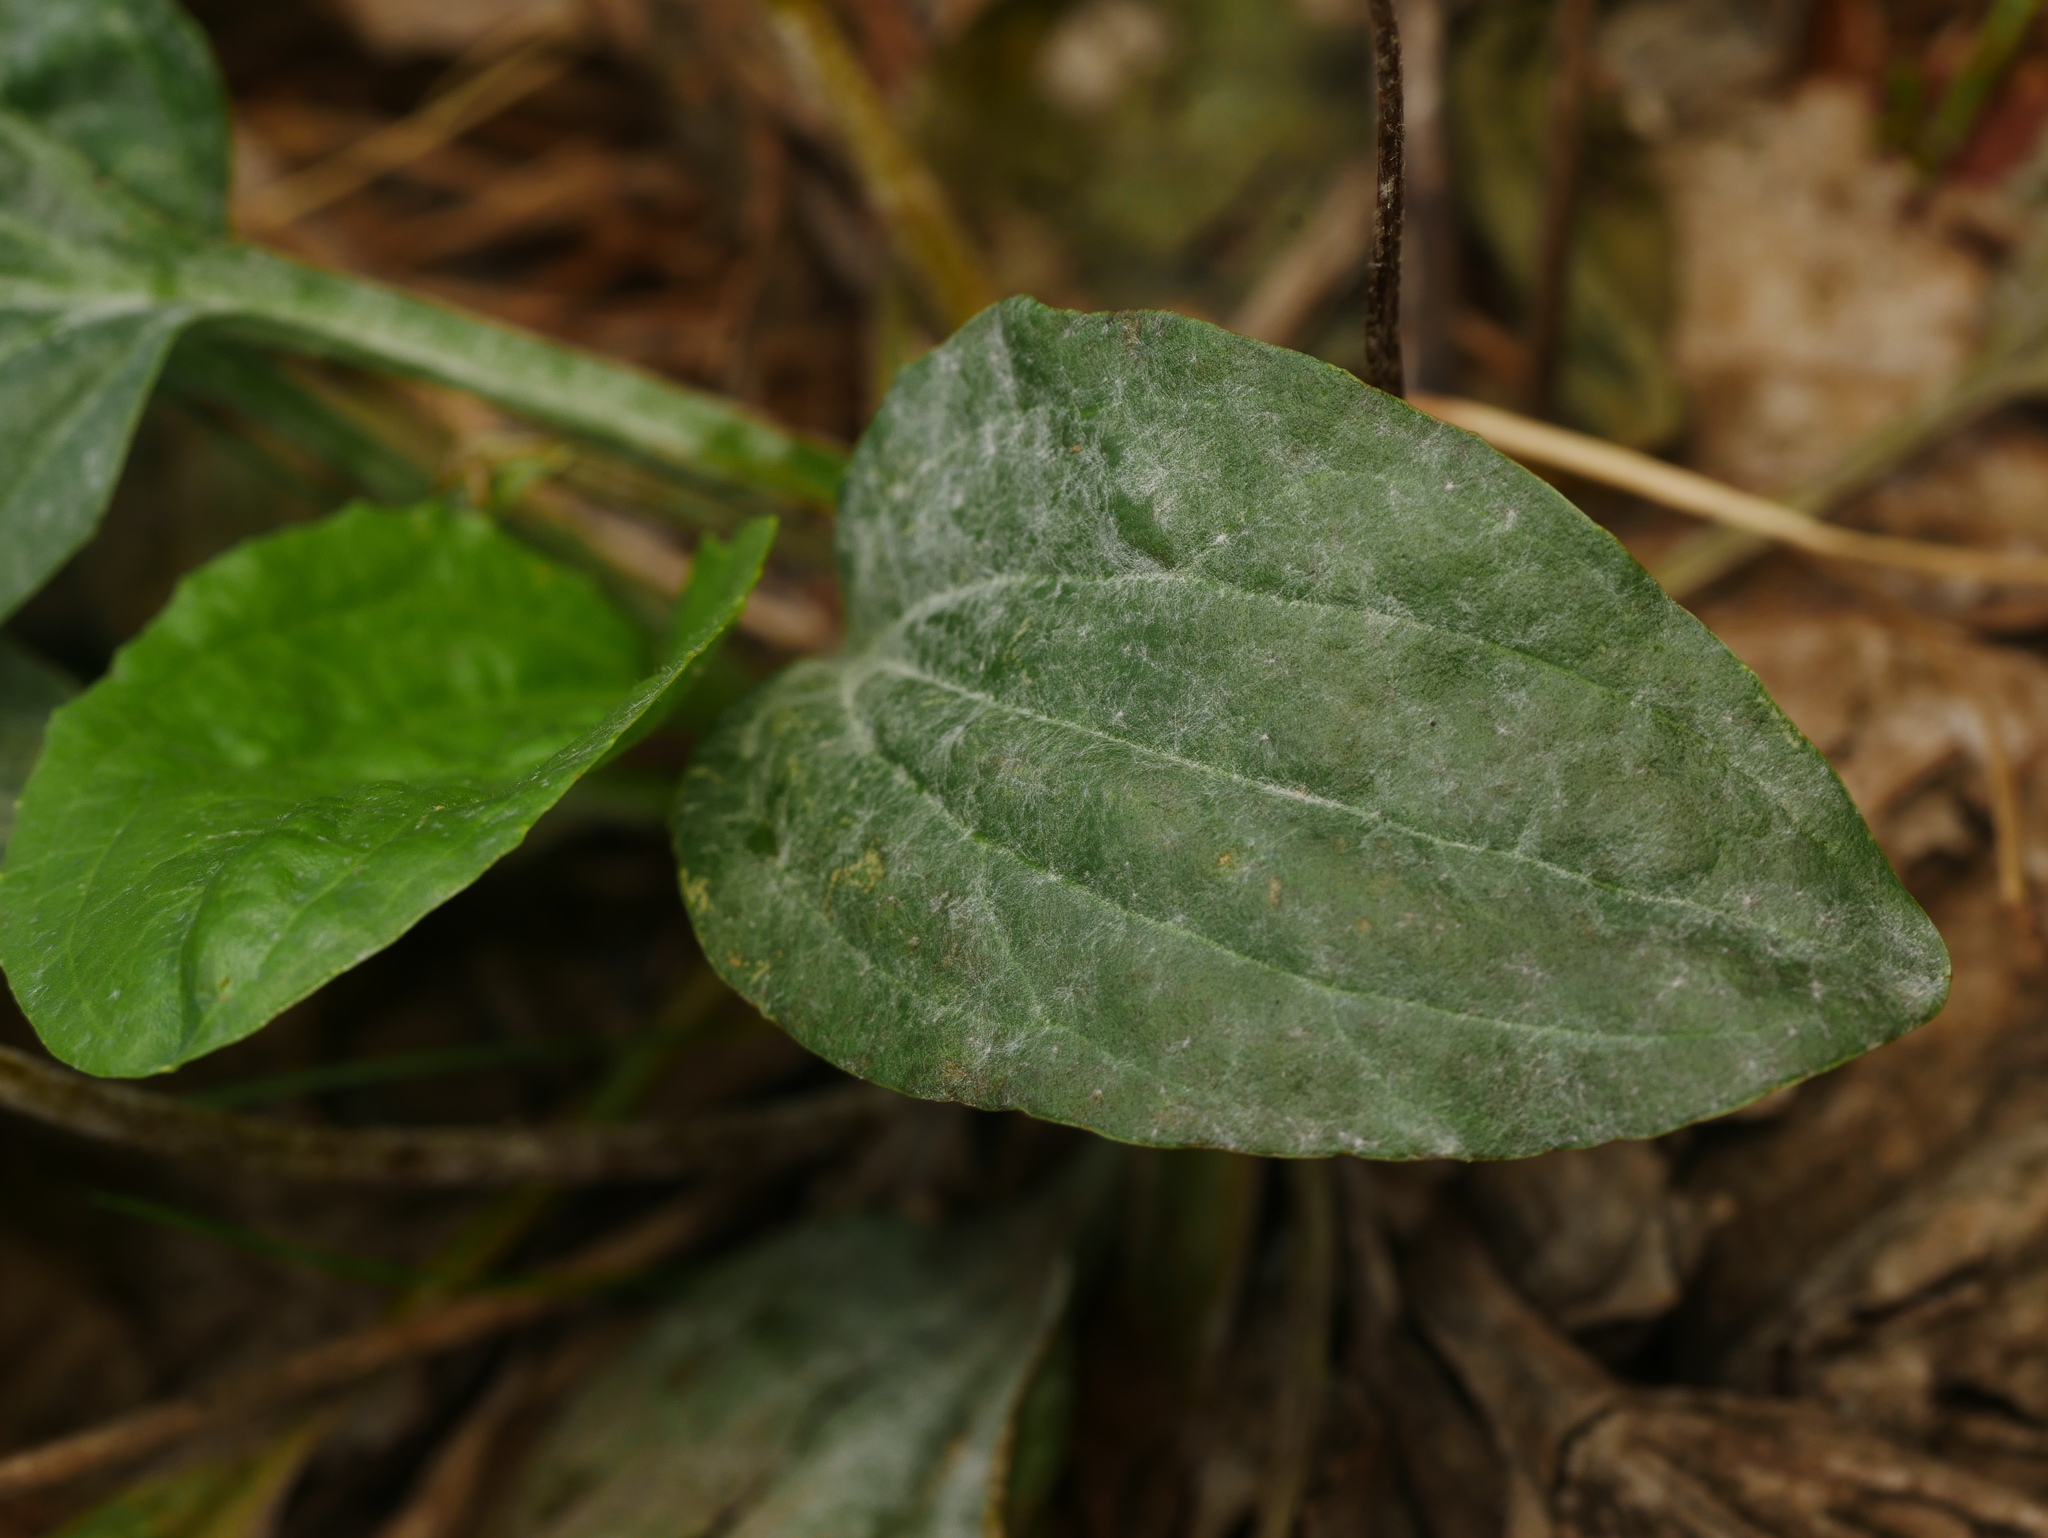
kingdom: Fungi
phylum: Ascomycota
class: Leotiomycetes
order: Helotiales
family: Erysiphaceae
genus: Golovinomyces
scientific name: Golovinomyces sordidus
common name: Plantain mildew
